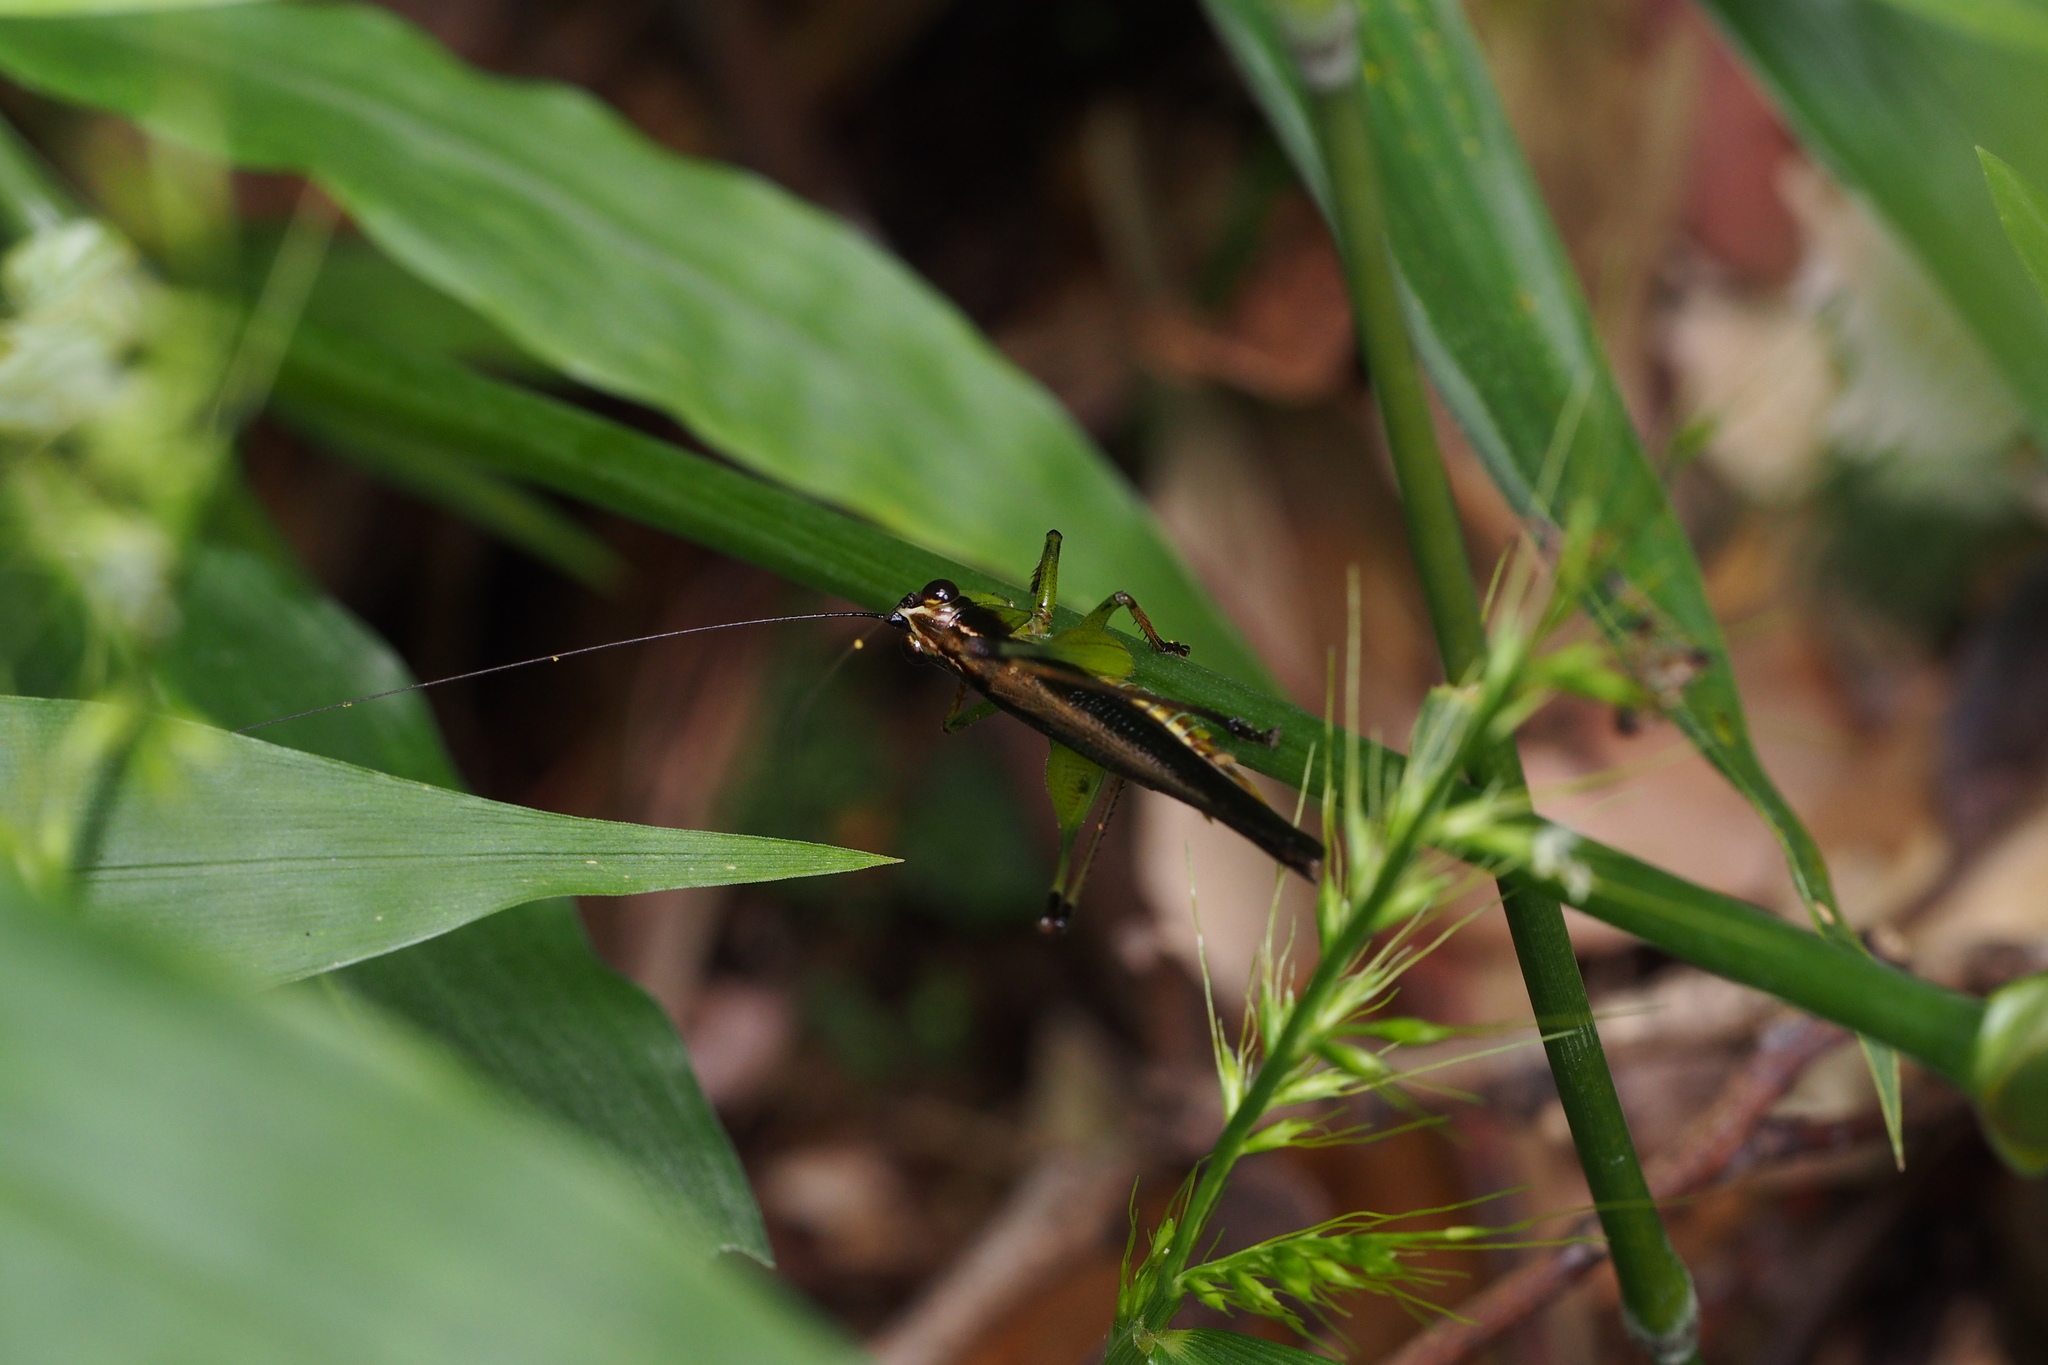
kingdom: Animalia
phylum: Arthropoda
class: Insecta
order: Orthoptera
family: Tettigoniidae
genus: Conocephalus
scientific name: Conocephalus melaenus
